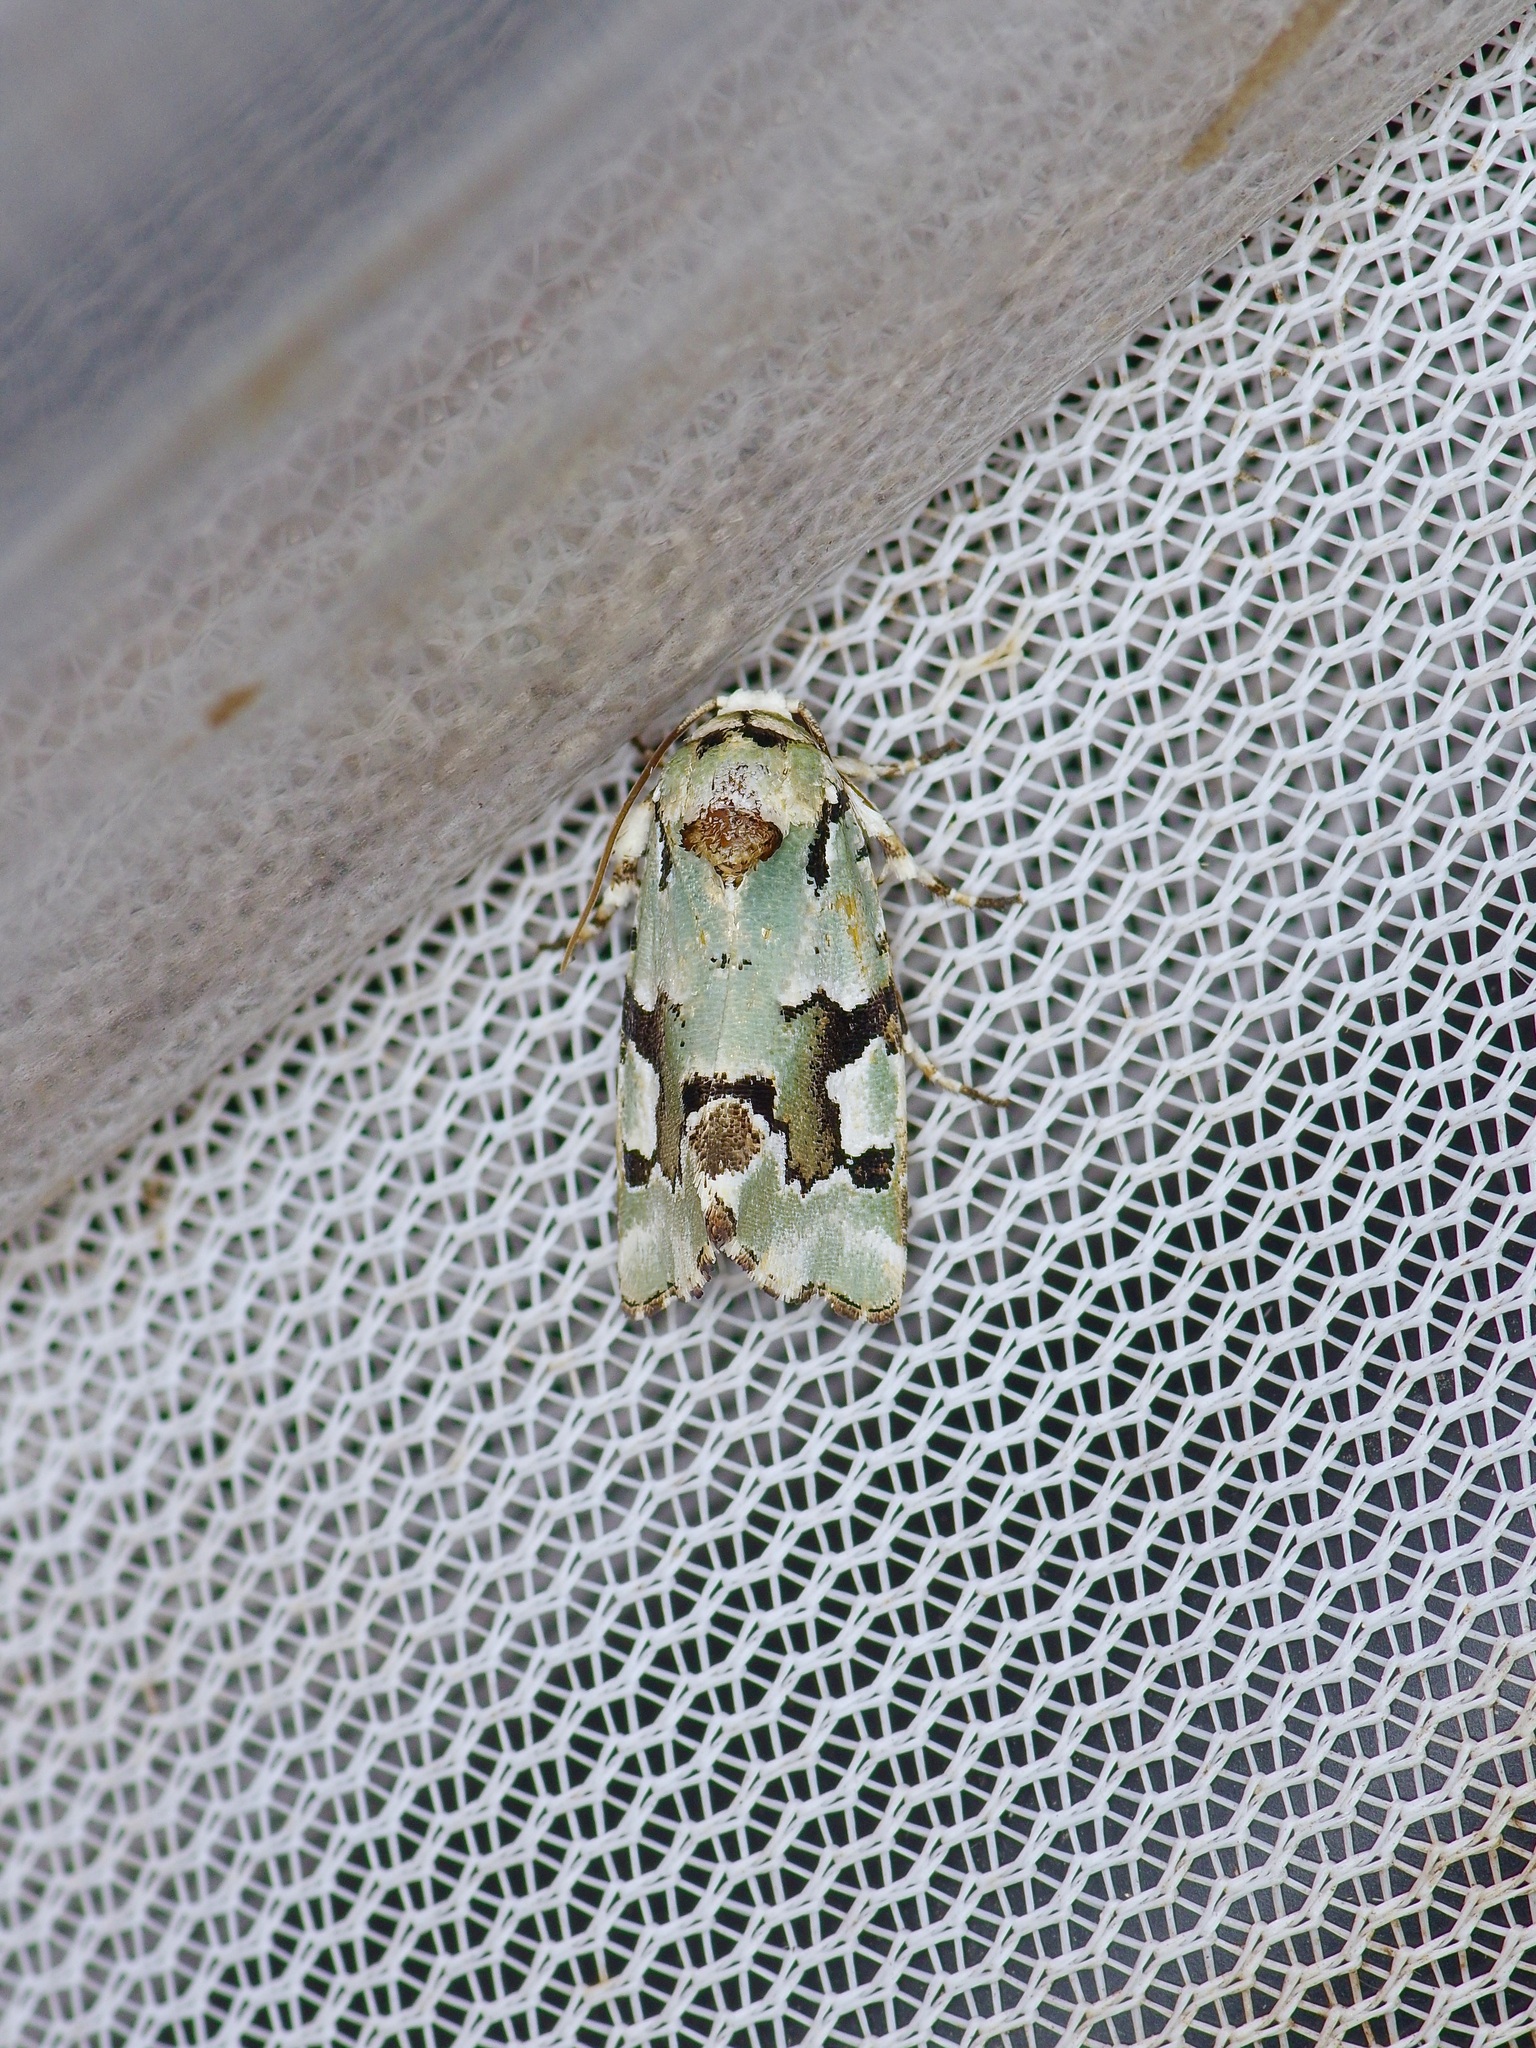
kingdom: Animalia
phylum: Arthropoda
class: Insecta
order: Lepidoptera
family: Noctuidae
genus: Emarginea
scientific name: Emarginea percara
